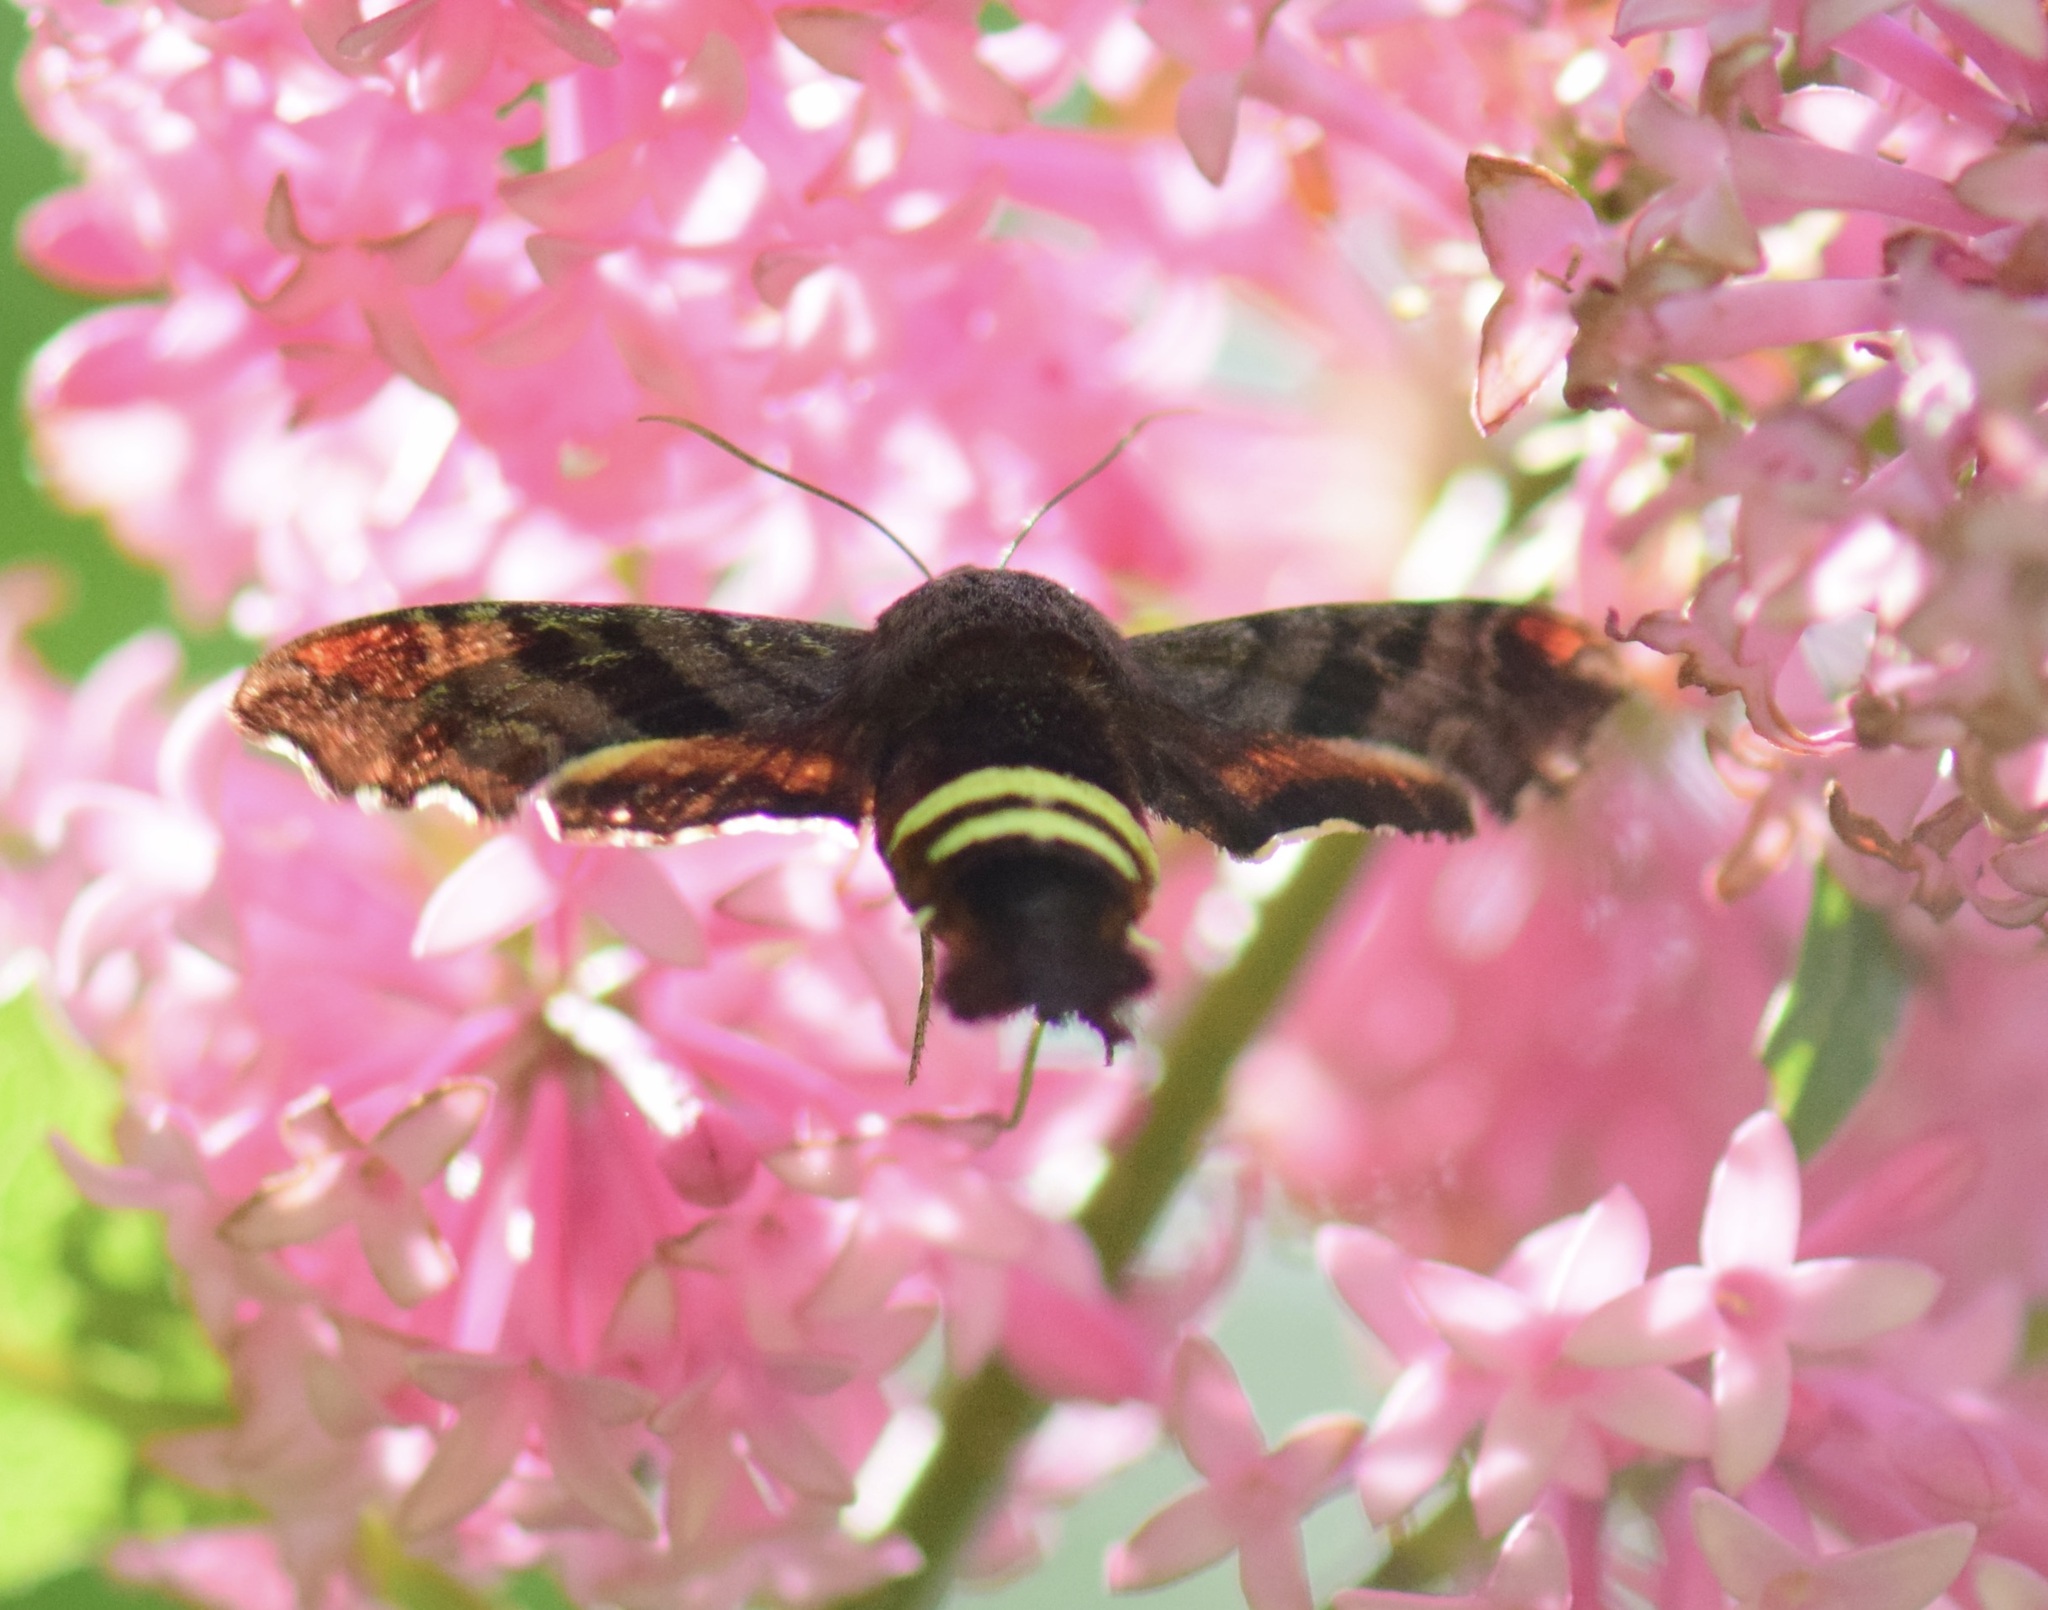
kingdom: Animalia
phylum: Arthropoda
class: Insecta
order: Lepidoptera
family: Sphingidae
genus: Amphion
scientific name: Amphion floridensis
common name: Nessus sphinx
